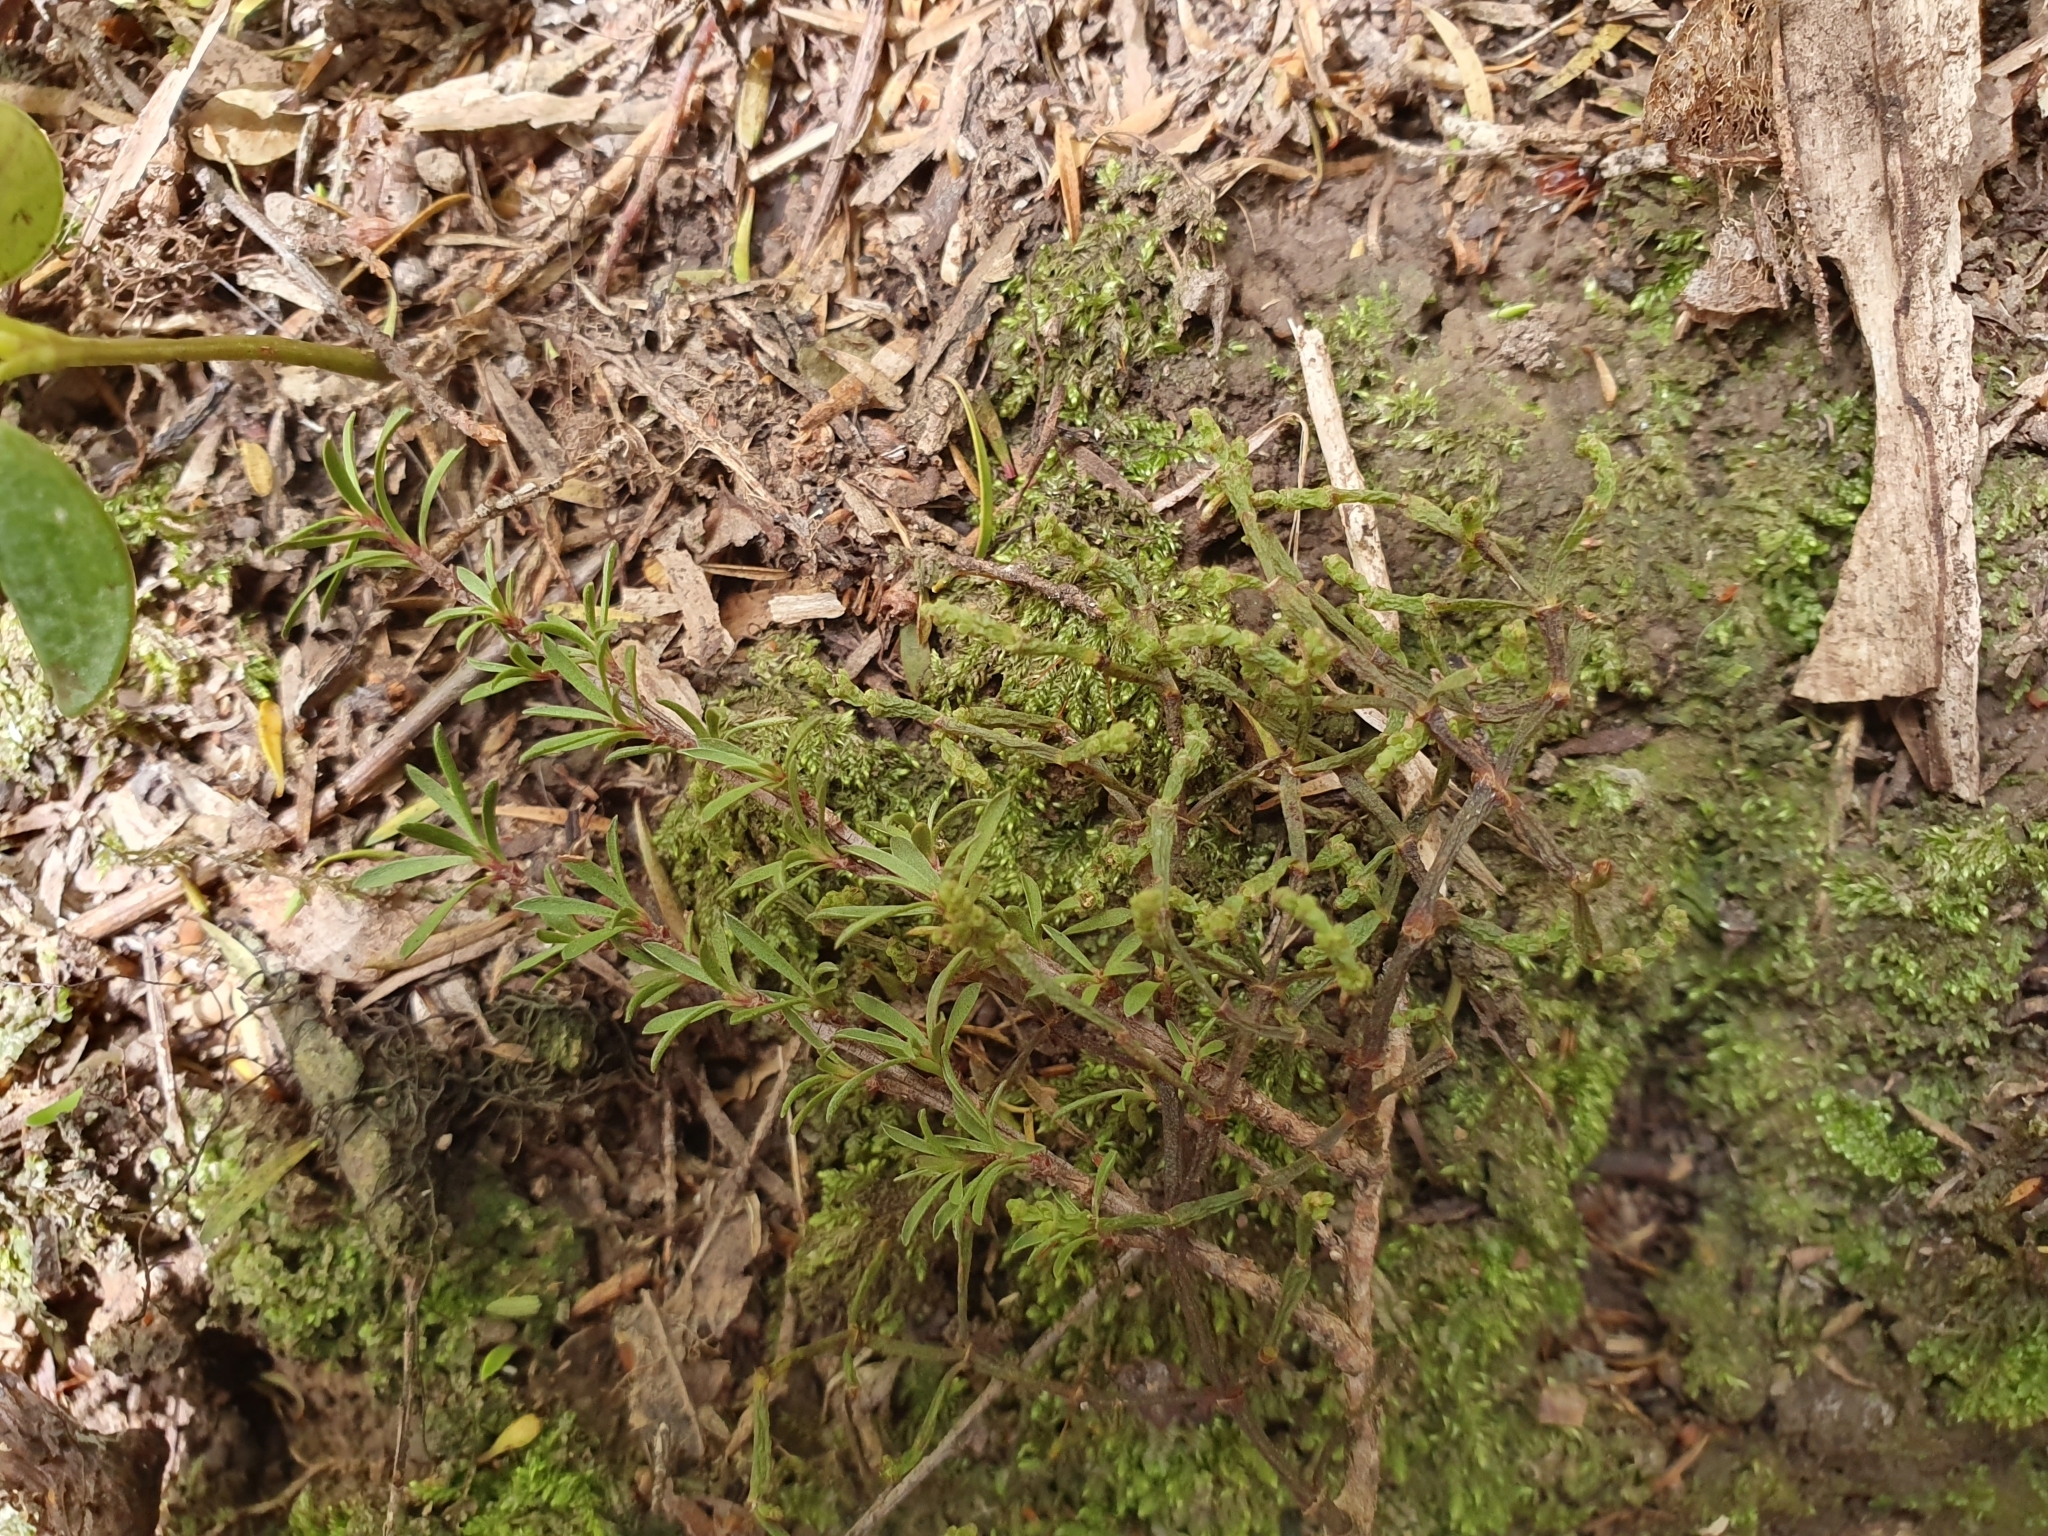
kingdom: Plantae
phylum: Tracheophyta
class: Magnoliopsida
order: Santalales
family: Viscaceae
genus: Korthalsella
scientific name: Korthalsella salicornioides
